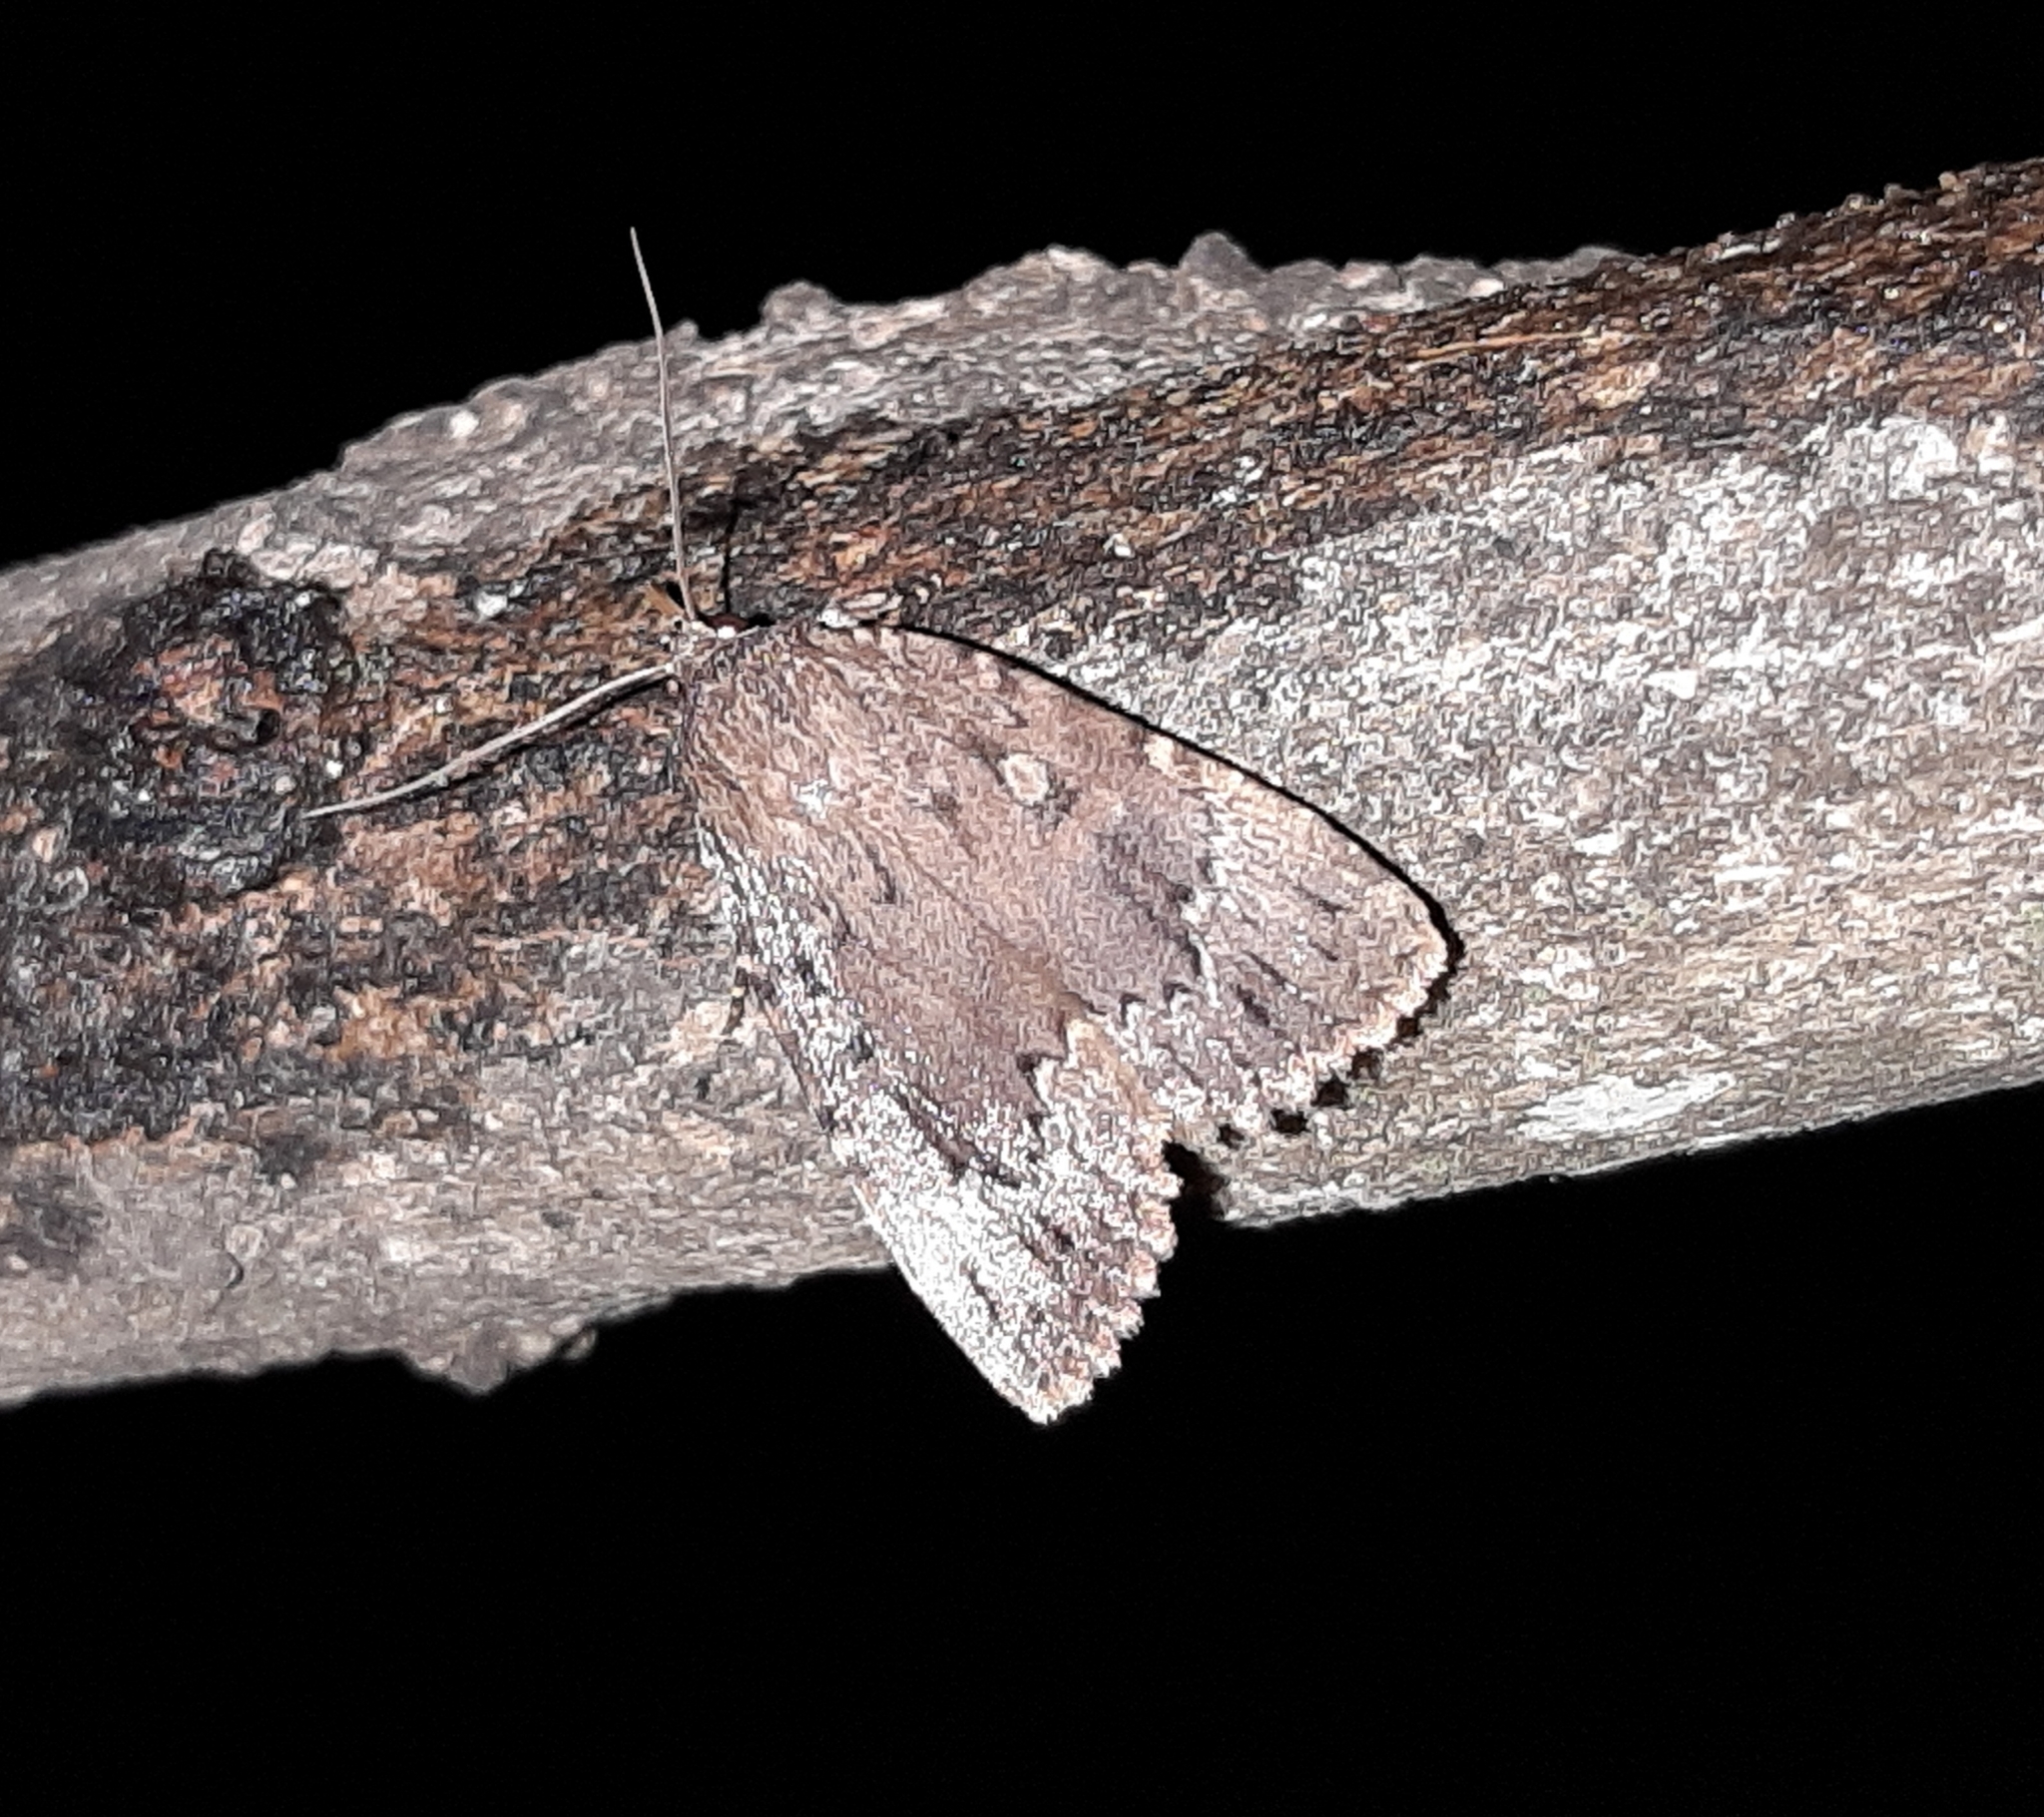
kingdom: Animalia
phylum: Arthropoda
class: Insecta
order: Lepidoptera
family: Noctuidae
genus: Amphipyra
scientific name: Amphipyra pyramidoides
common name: American copper underwing
